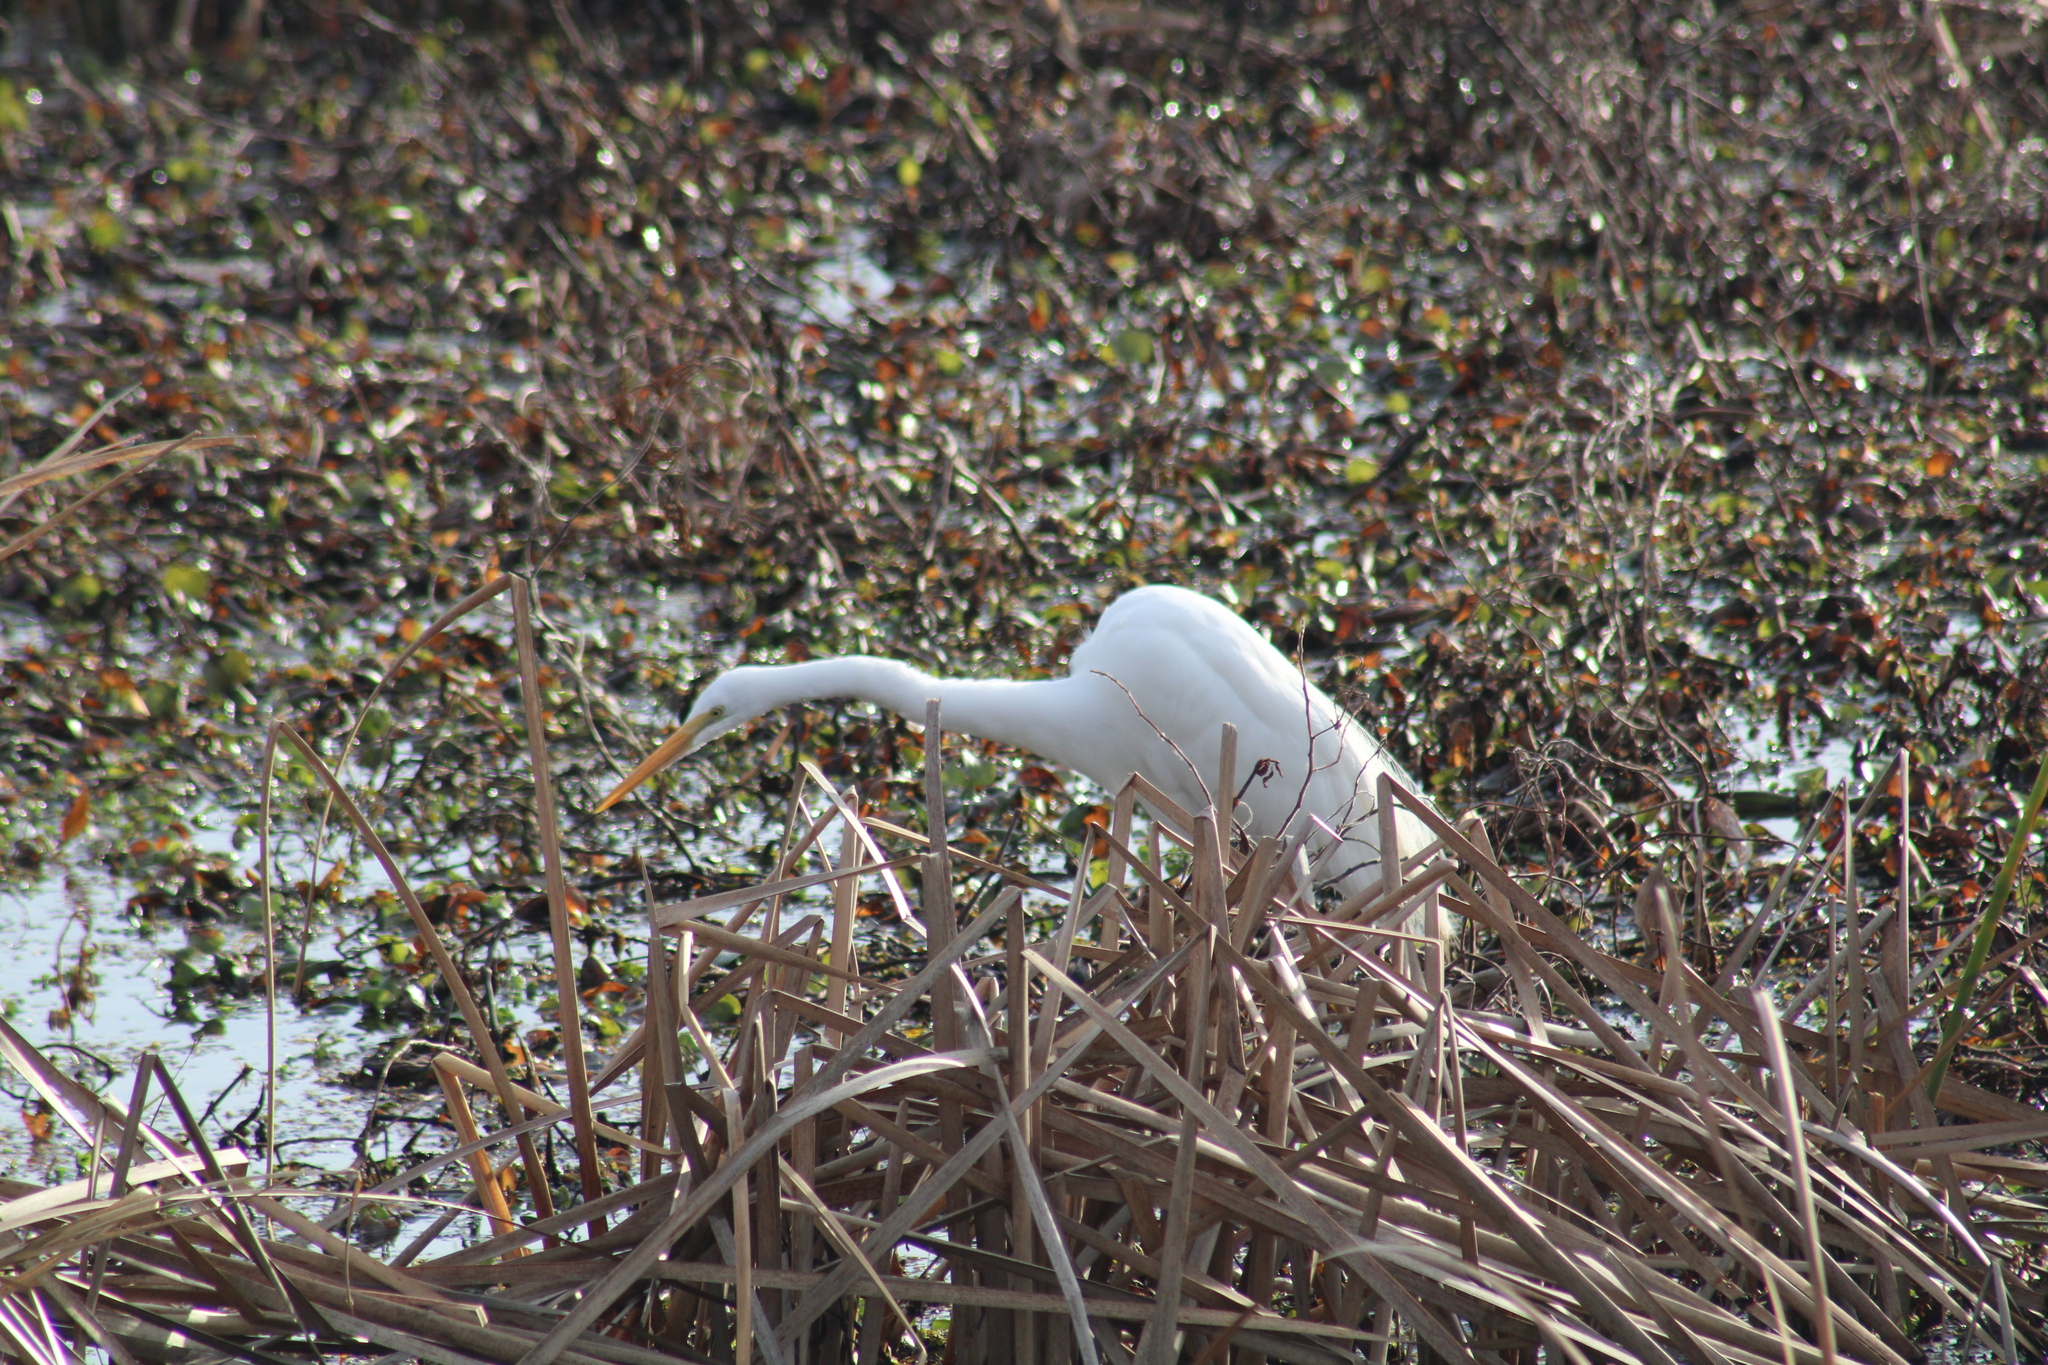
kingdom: Animalia
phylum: Chordata
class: Aves
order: Pelecaniformes
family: Ardeidae
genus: Ardea
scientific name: Ardea alba
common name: Great egret
